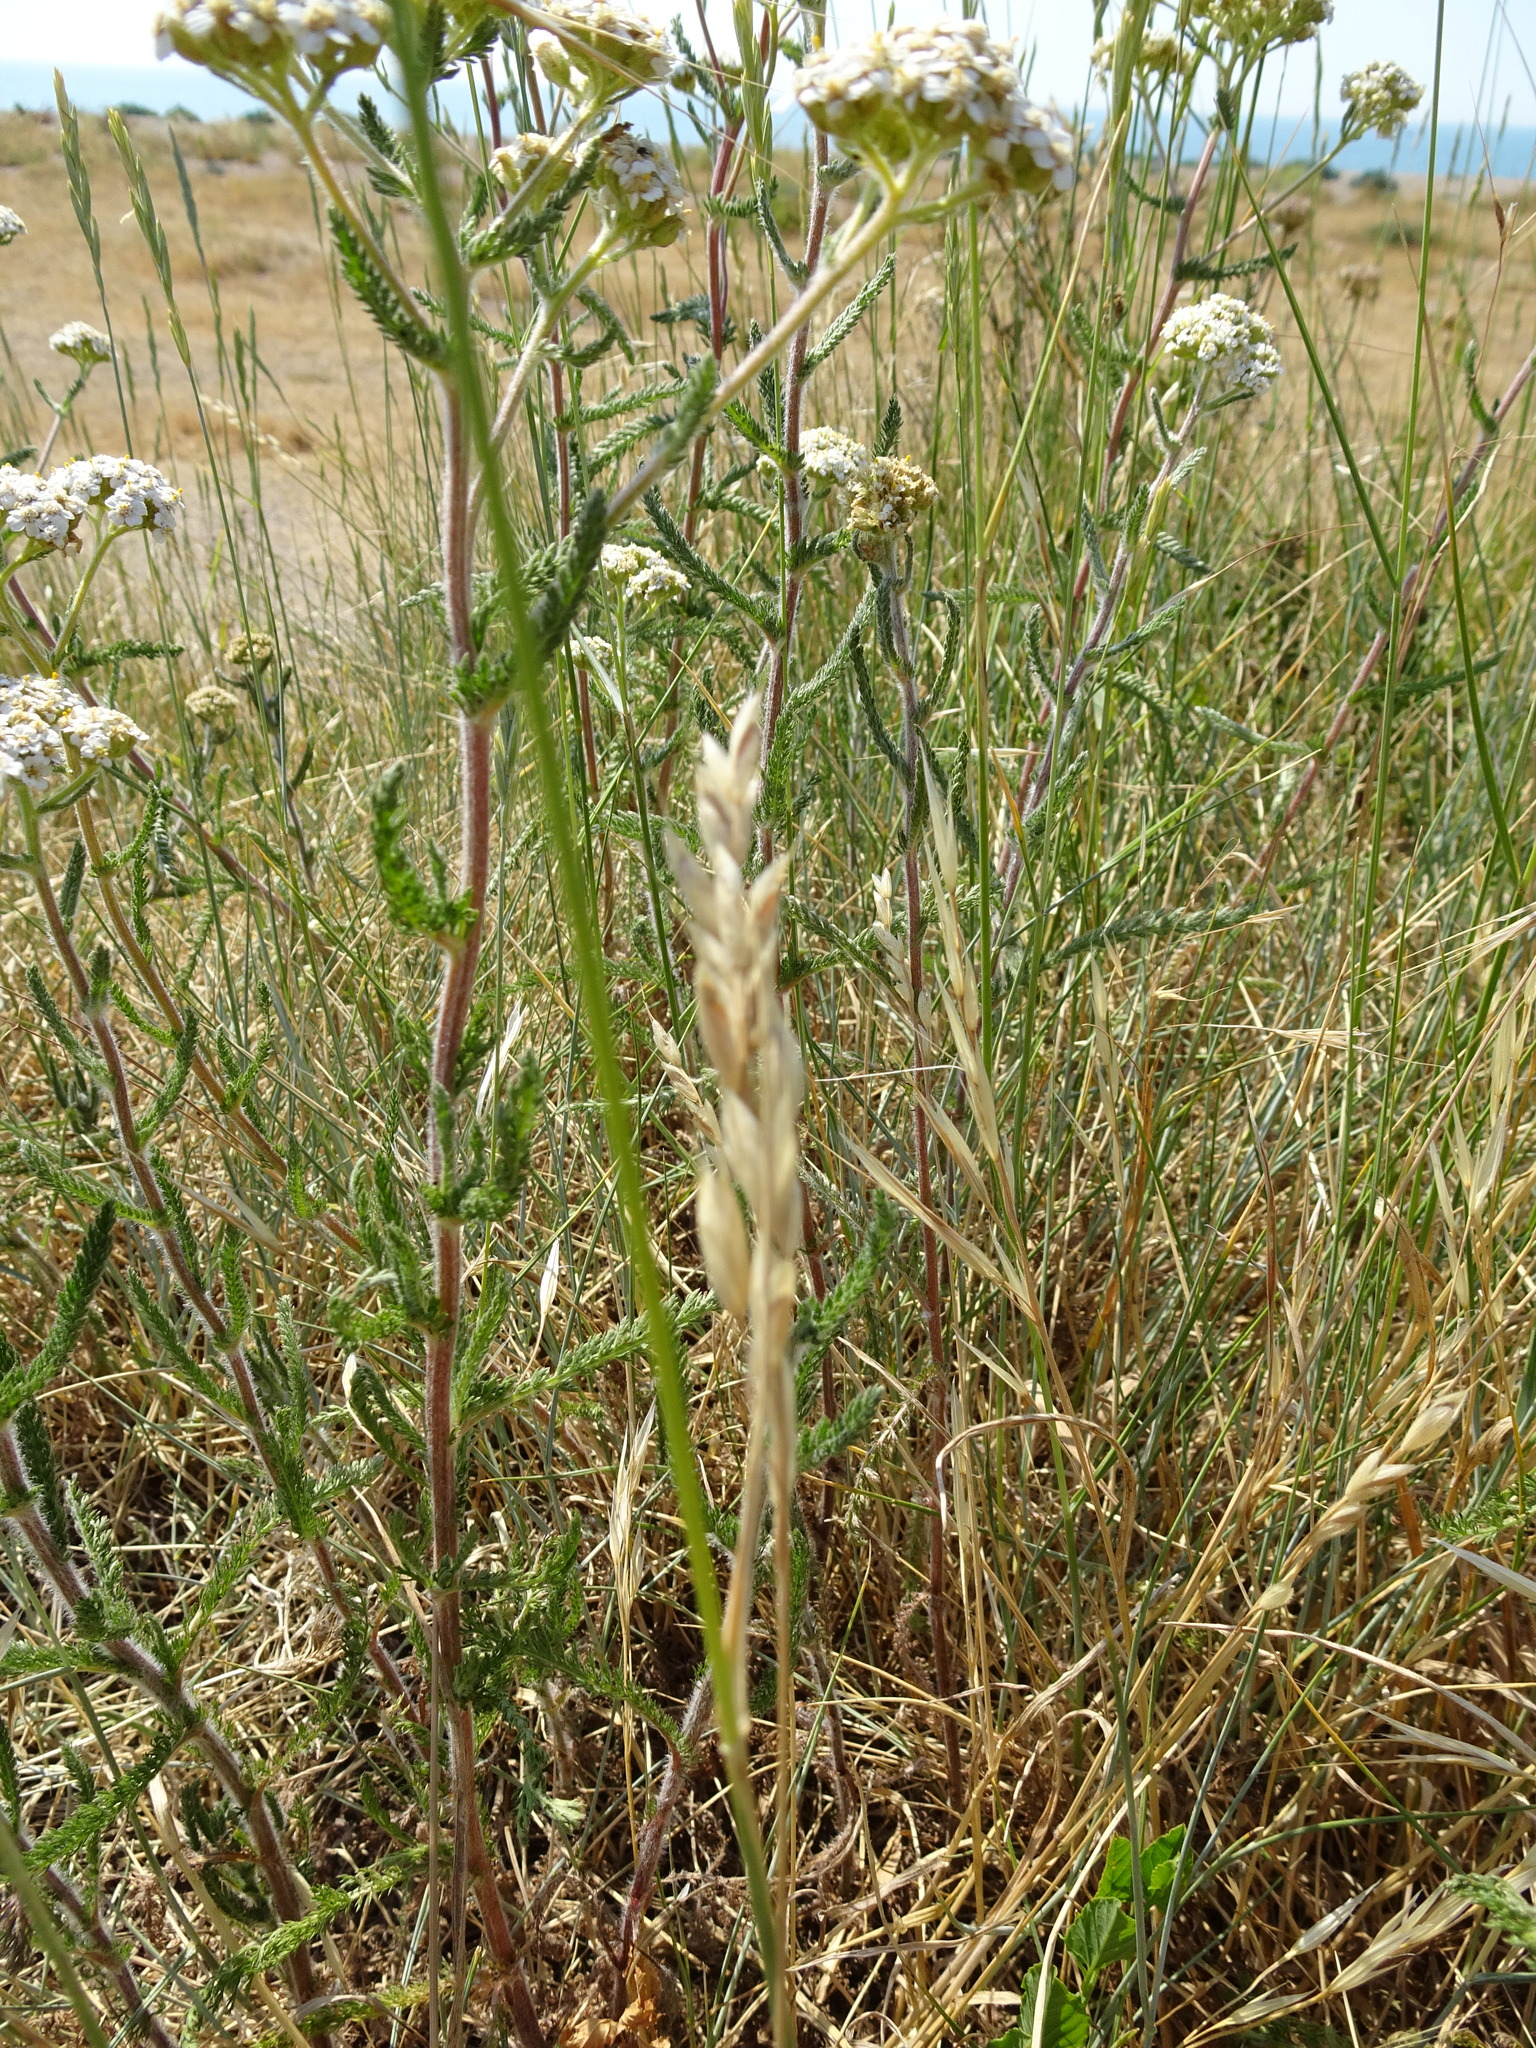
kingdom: Plantae
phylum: Tracheophyta
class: Magnoliopsida
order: Asterales
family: Asteraceae
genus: Achillea
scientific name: Achillea millefolium
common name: Yarrow
